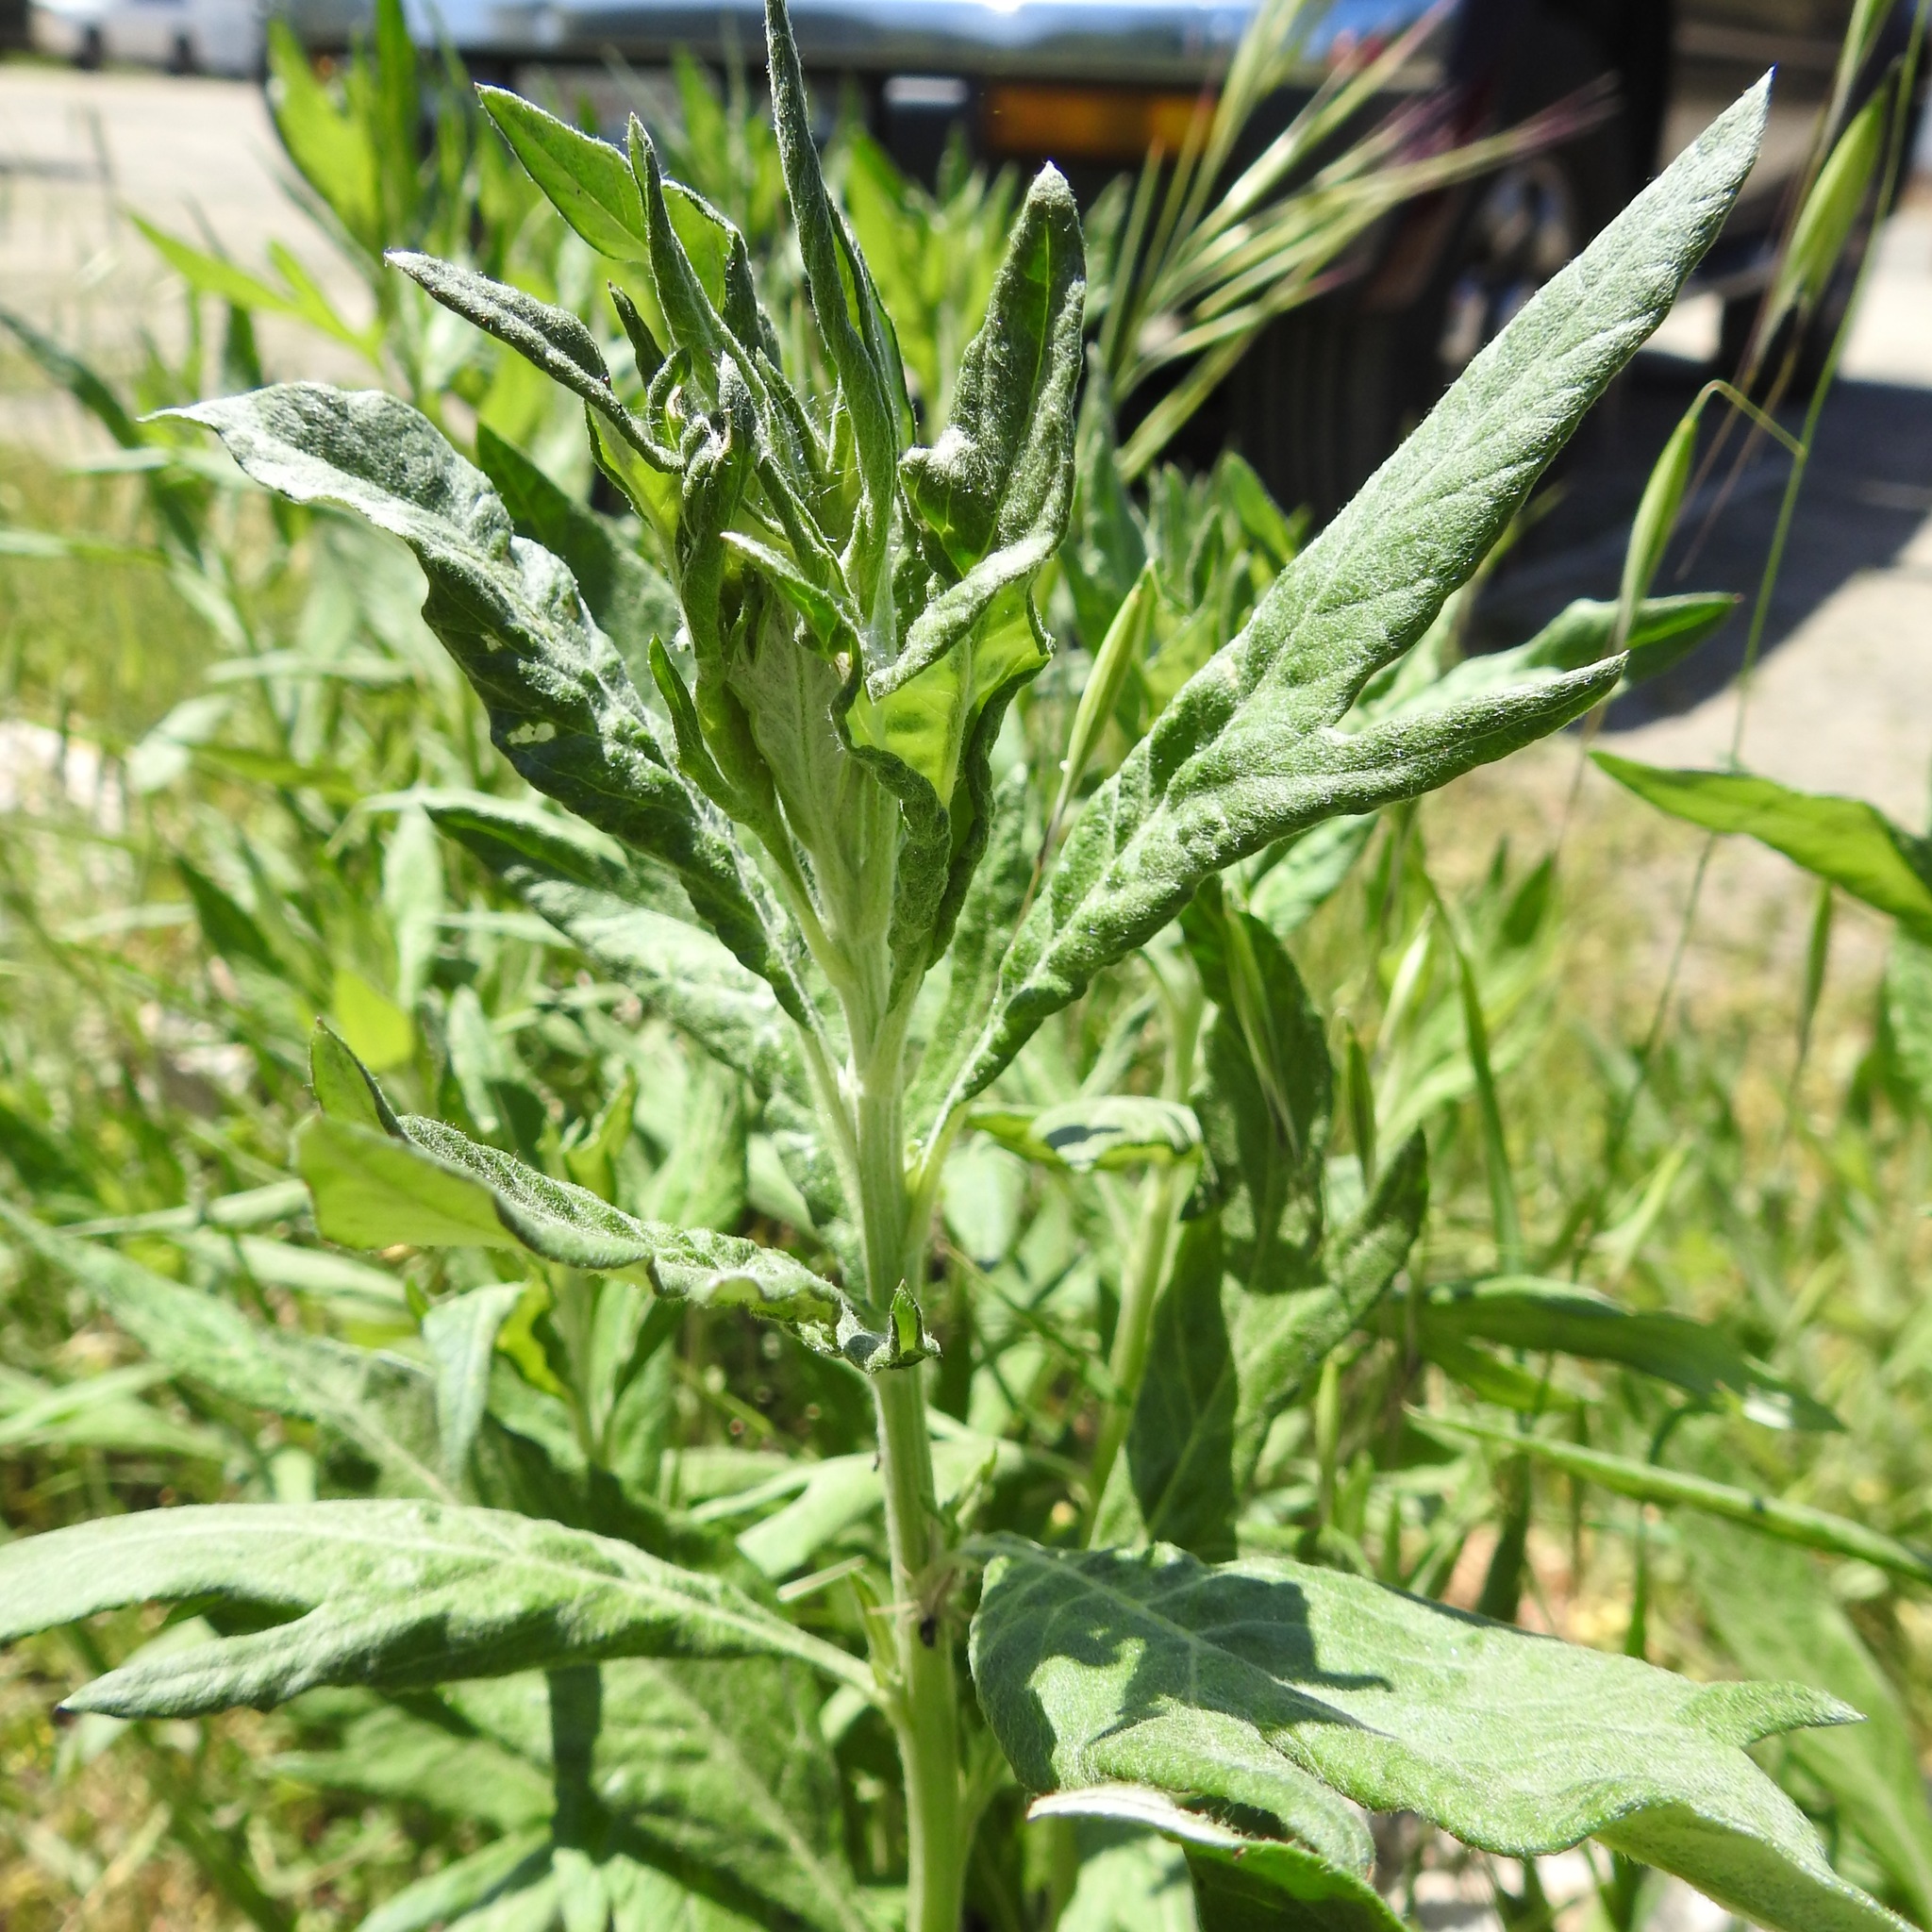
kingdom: Plantae
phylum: Tracheophyta
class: Magnoliopsida
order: Asterales
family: Asteraceae
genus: Artemisia
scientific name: Artemisia douglasiana
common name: Northwest mugwort
